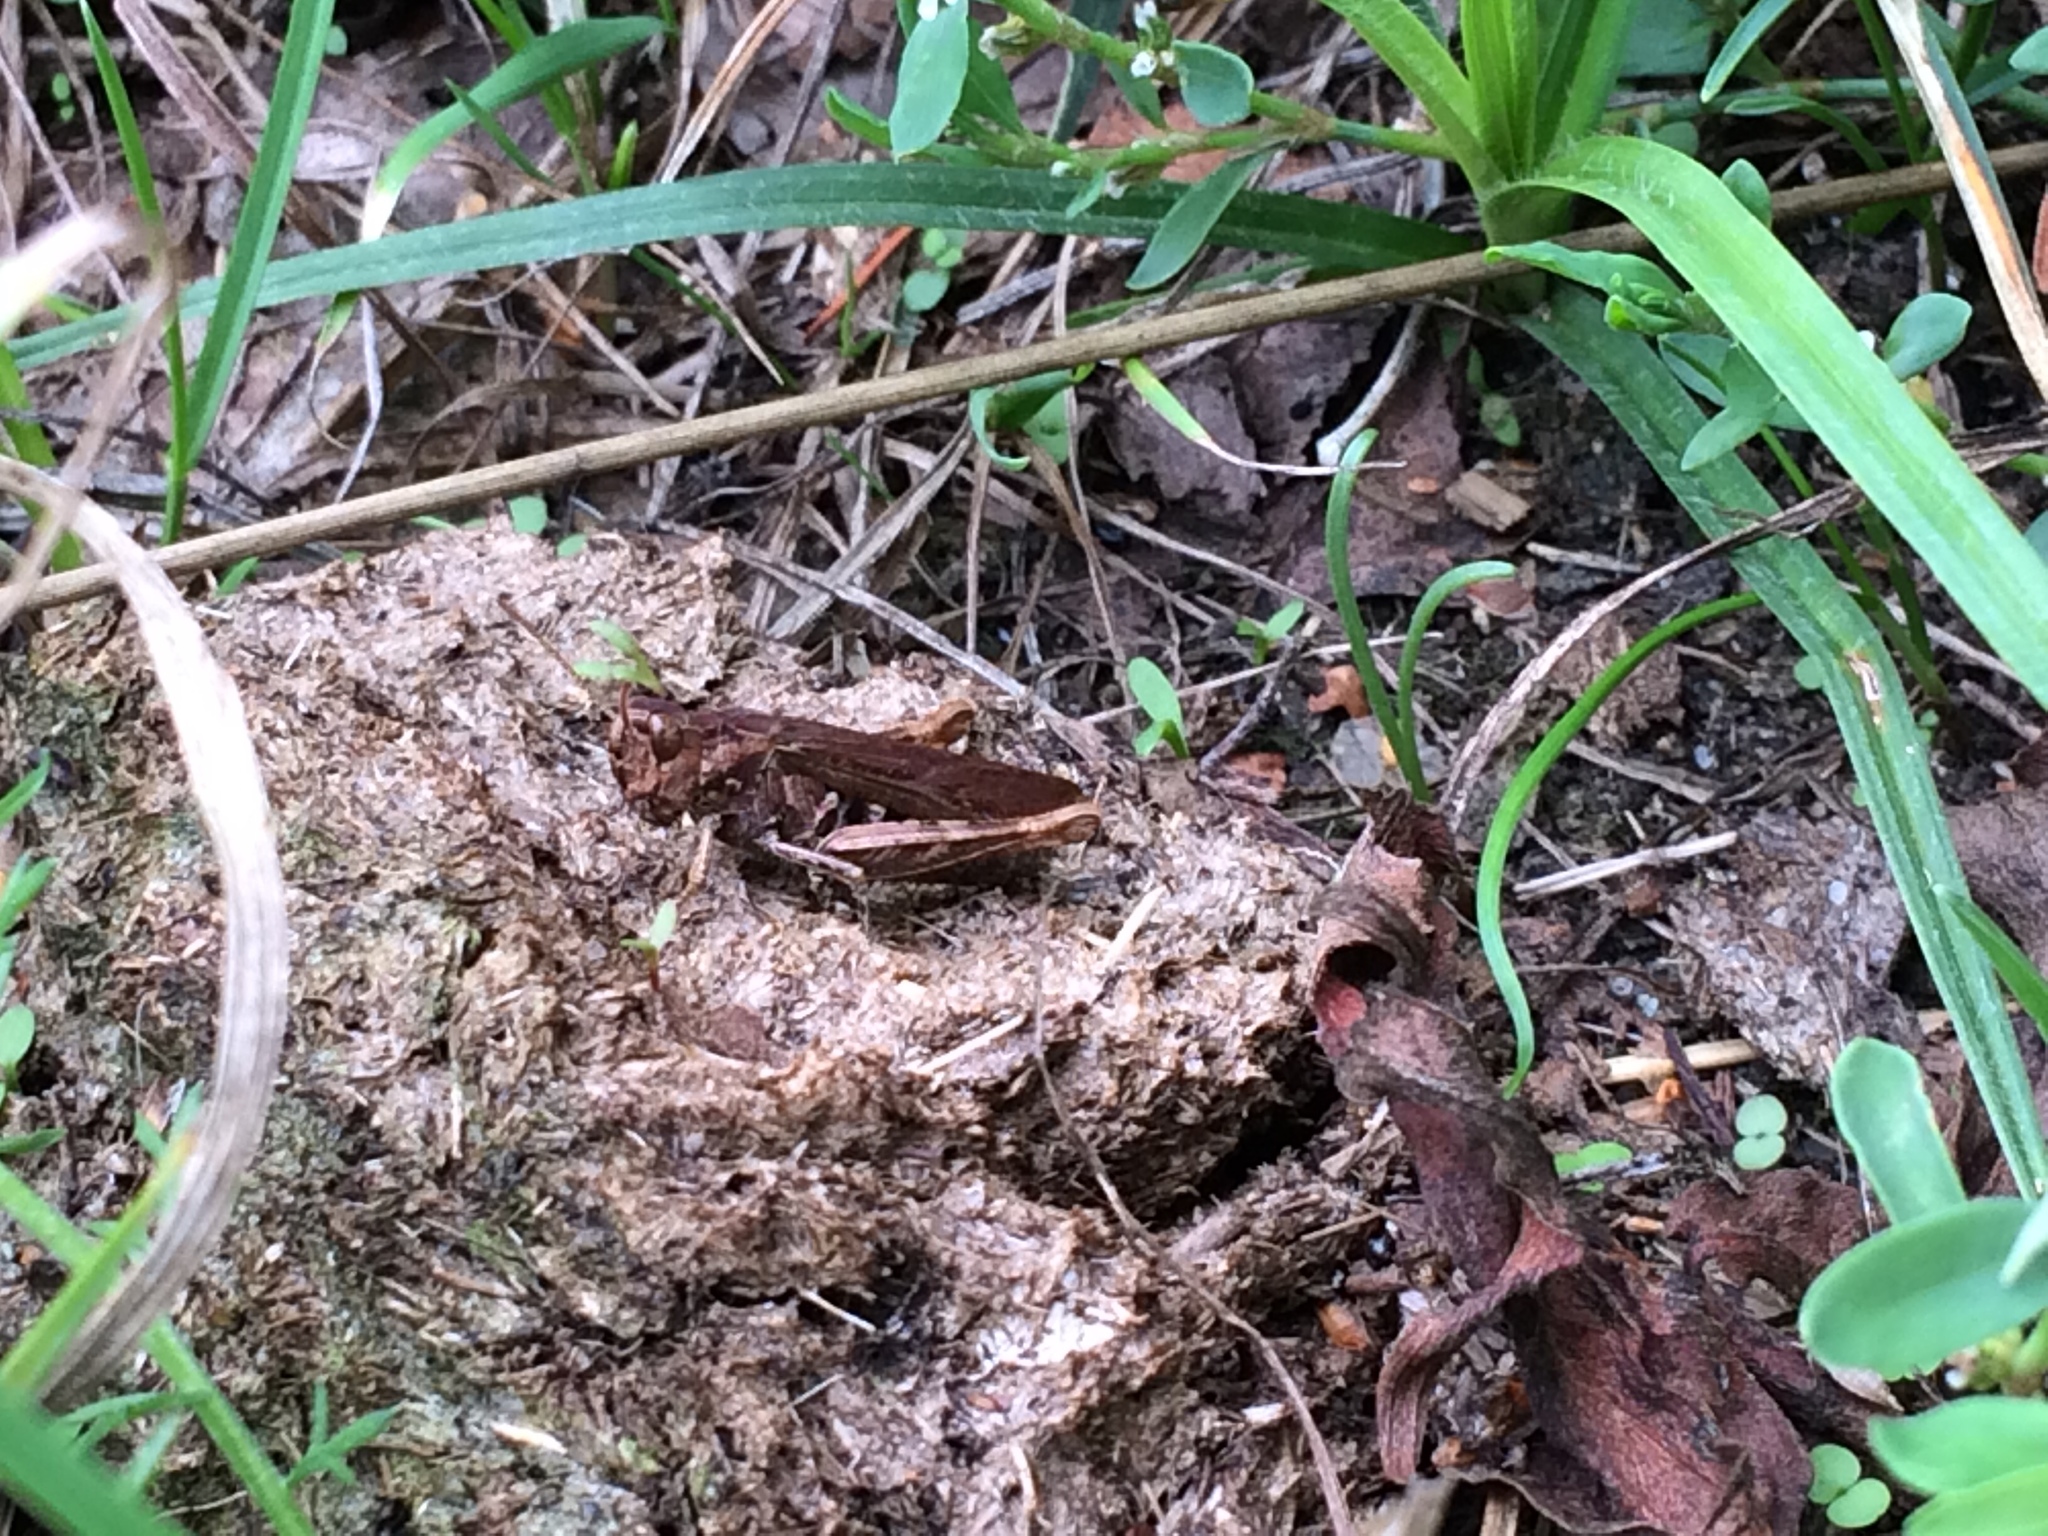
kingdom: Animalia
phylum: Arthropoda
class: Insecta
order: Orthoptera
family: Acrididae
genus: Chorthippus
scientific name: Chorthippus brunneus
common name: Field grasshopper
